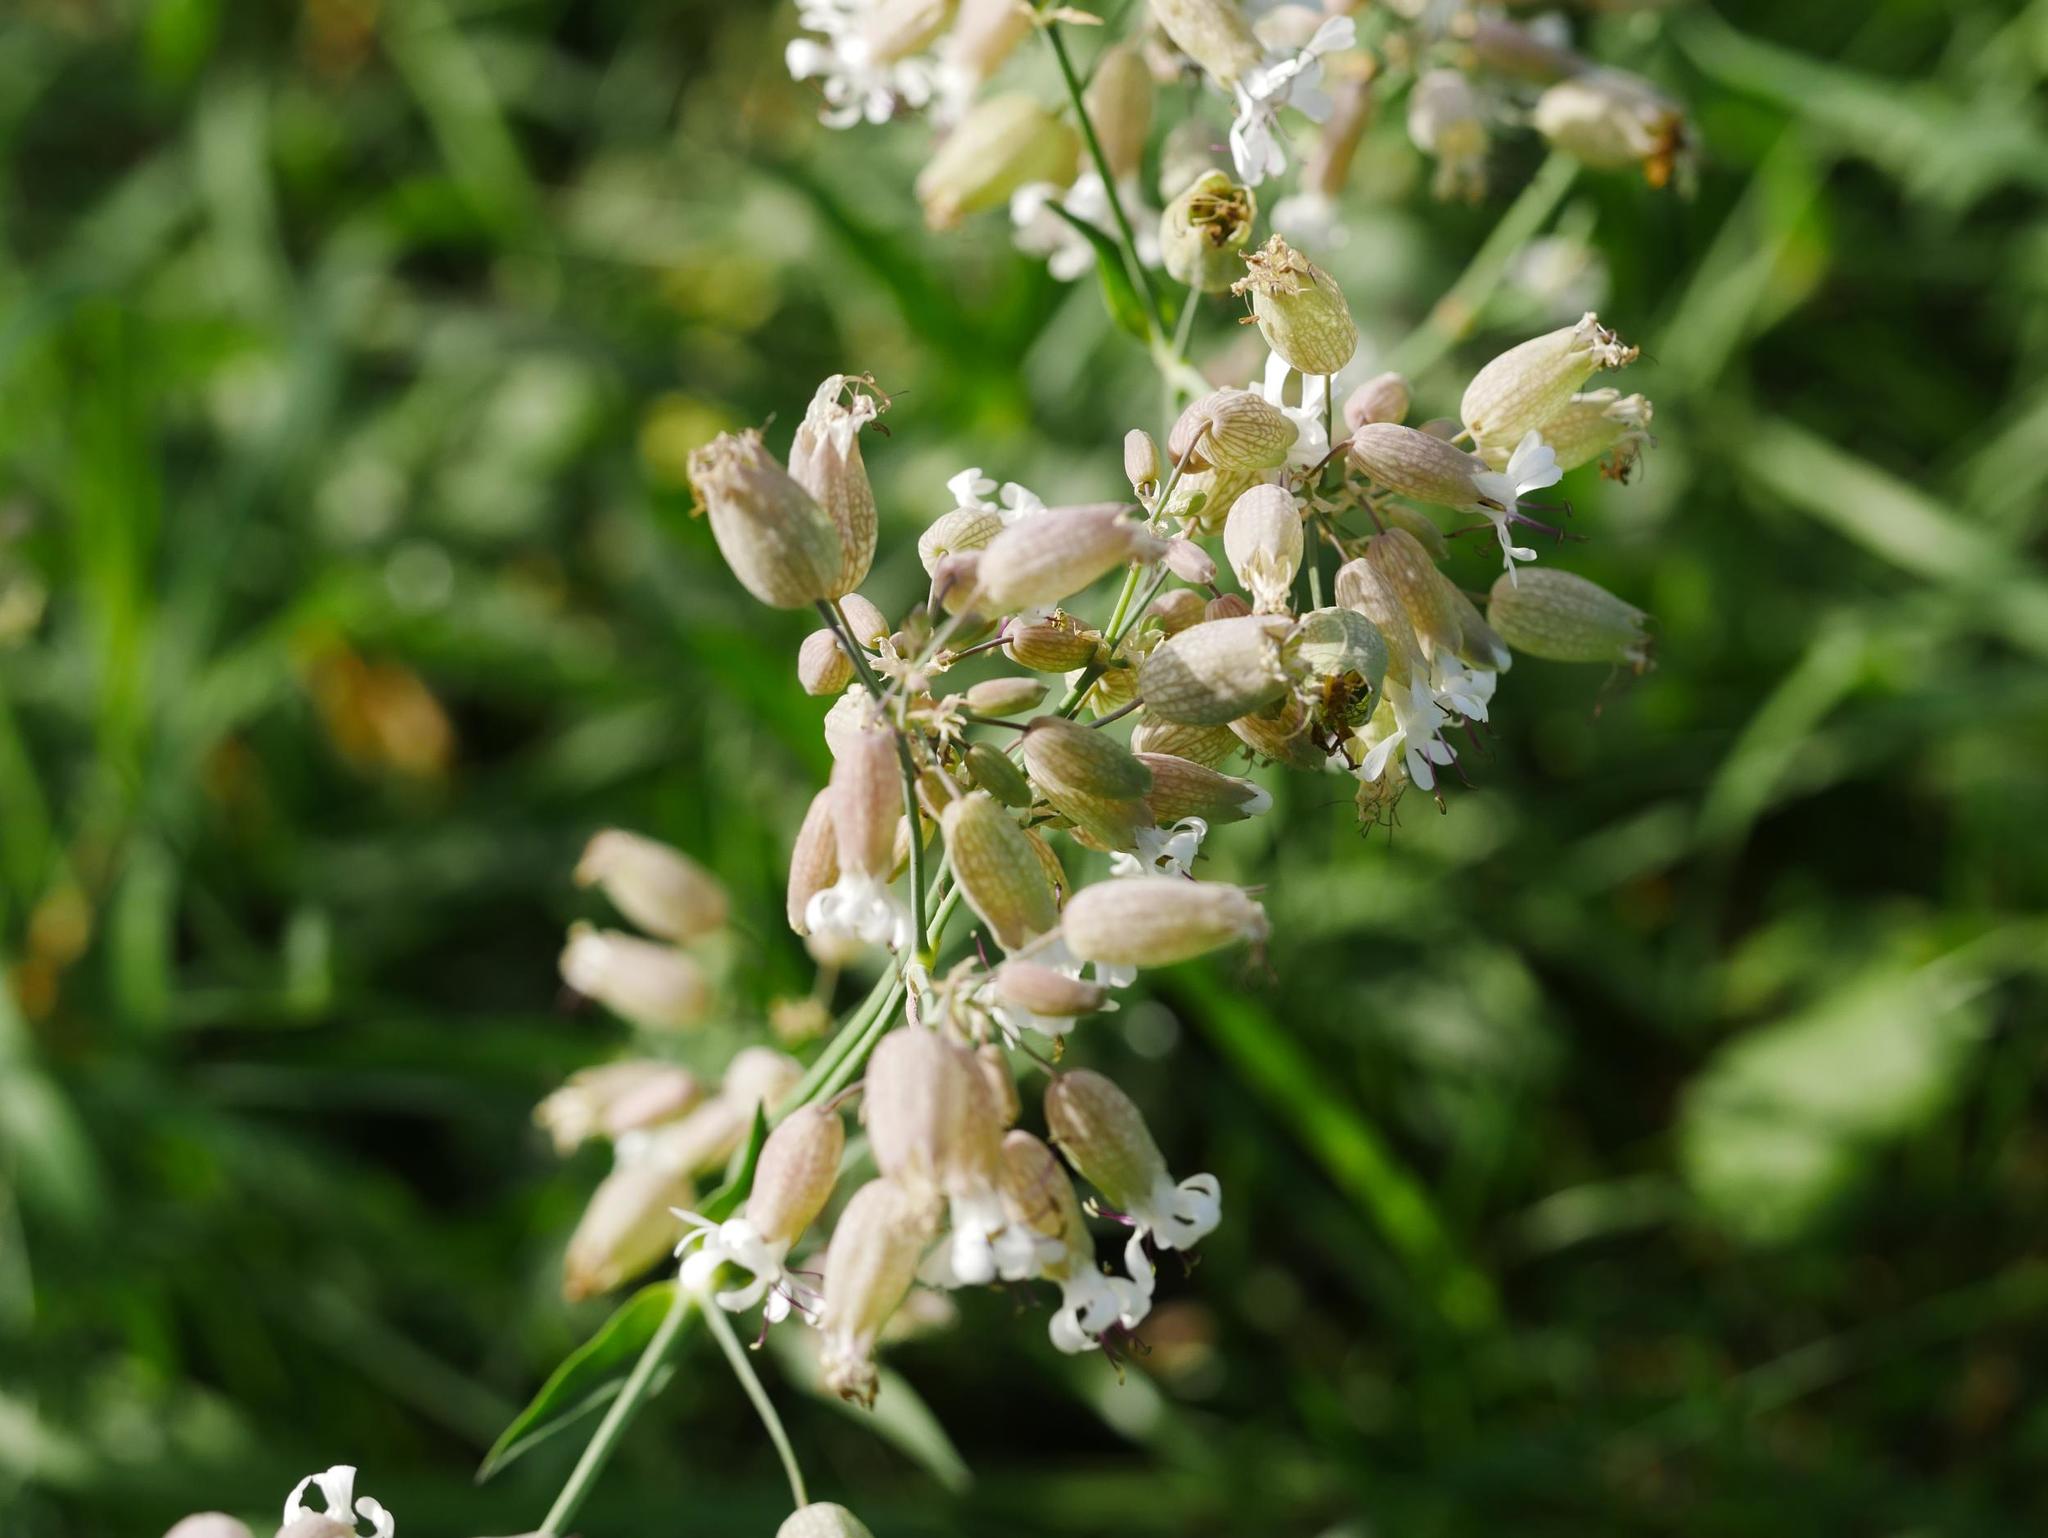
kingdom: Plantae
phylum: Tracheophyta
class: Magnoliopsida
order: Caryophyllales
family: Caryophyllaceae
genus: Silene
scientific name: Silene vulgaris
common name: Bladder campion
